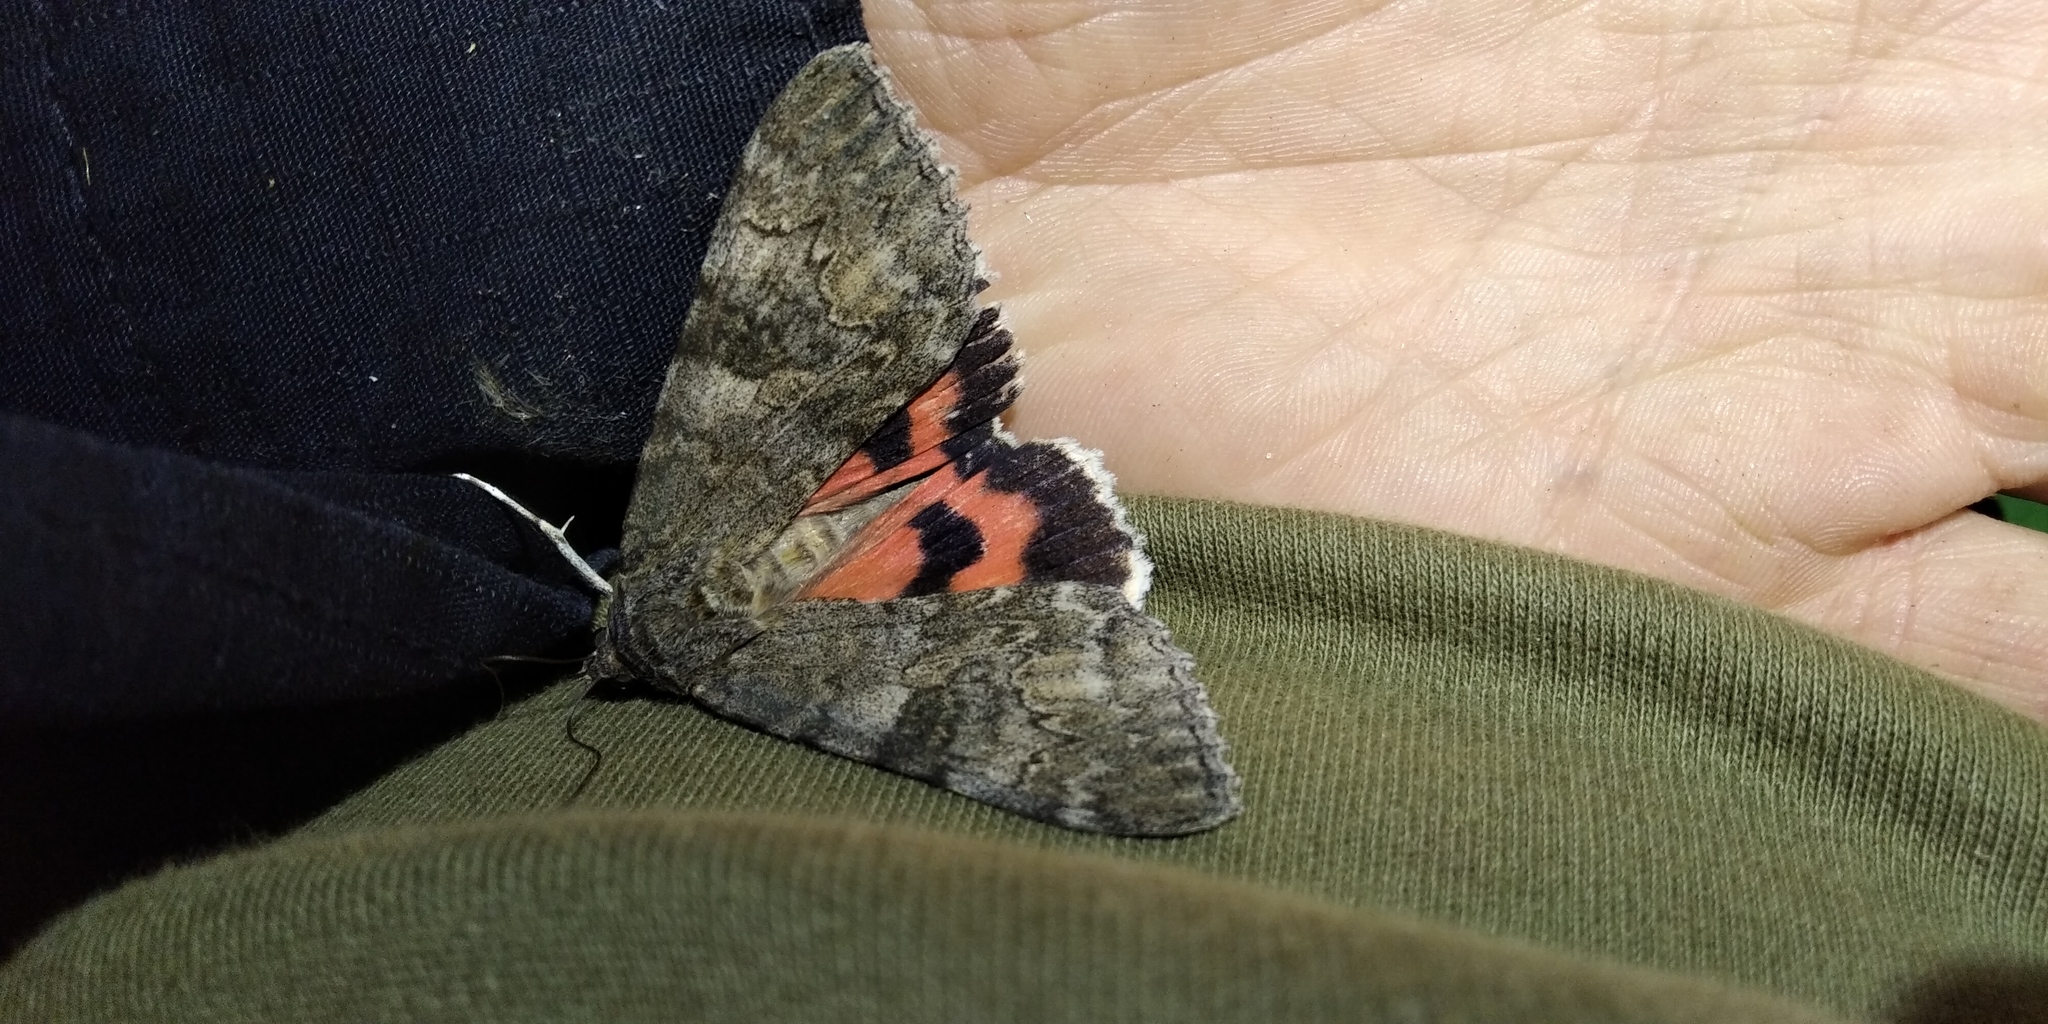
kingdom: Animalia
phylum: Arthropoda
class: Insecta
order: Lepidoptera
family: Erebidae
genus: Catocala
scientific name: Catocala nupta
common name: Red underwing
